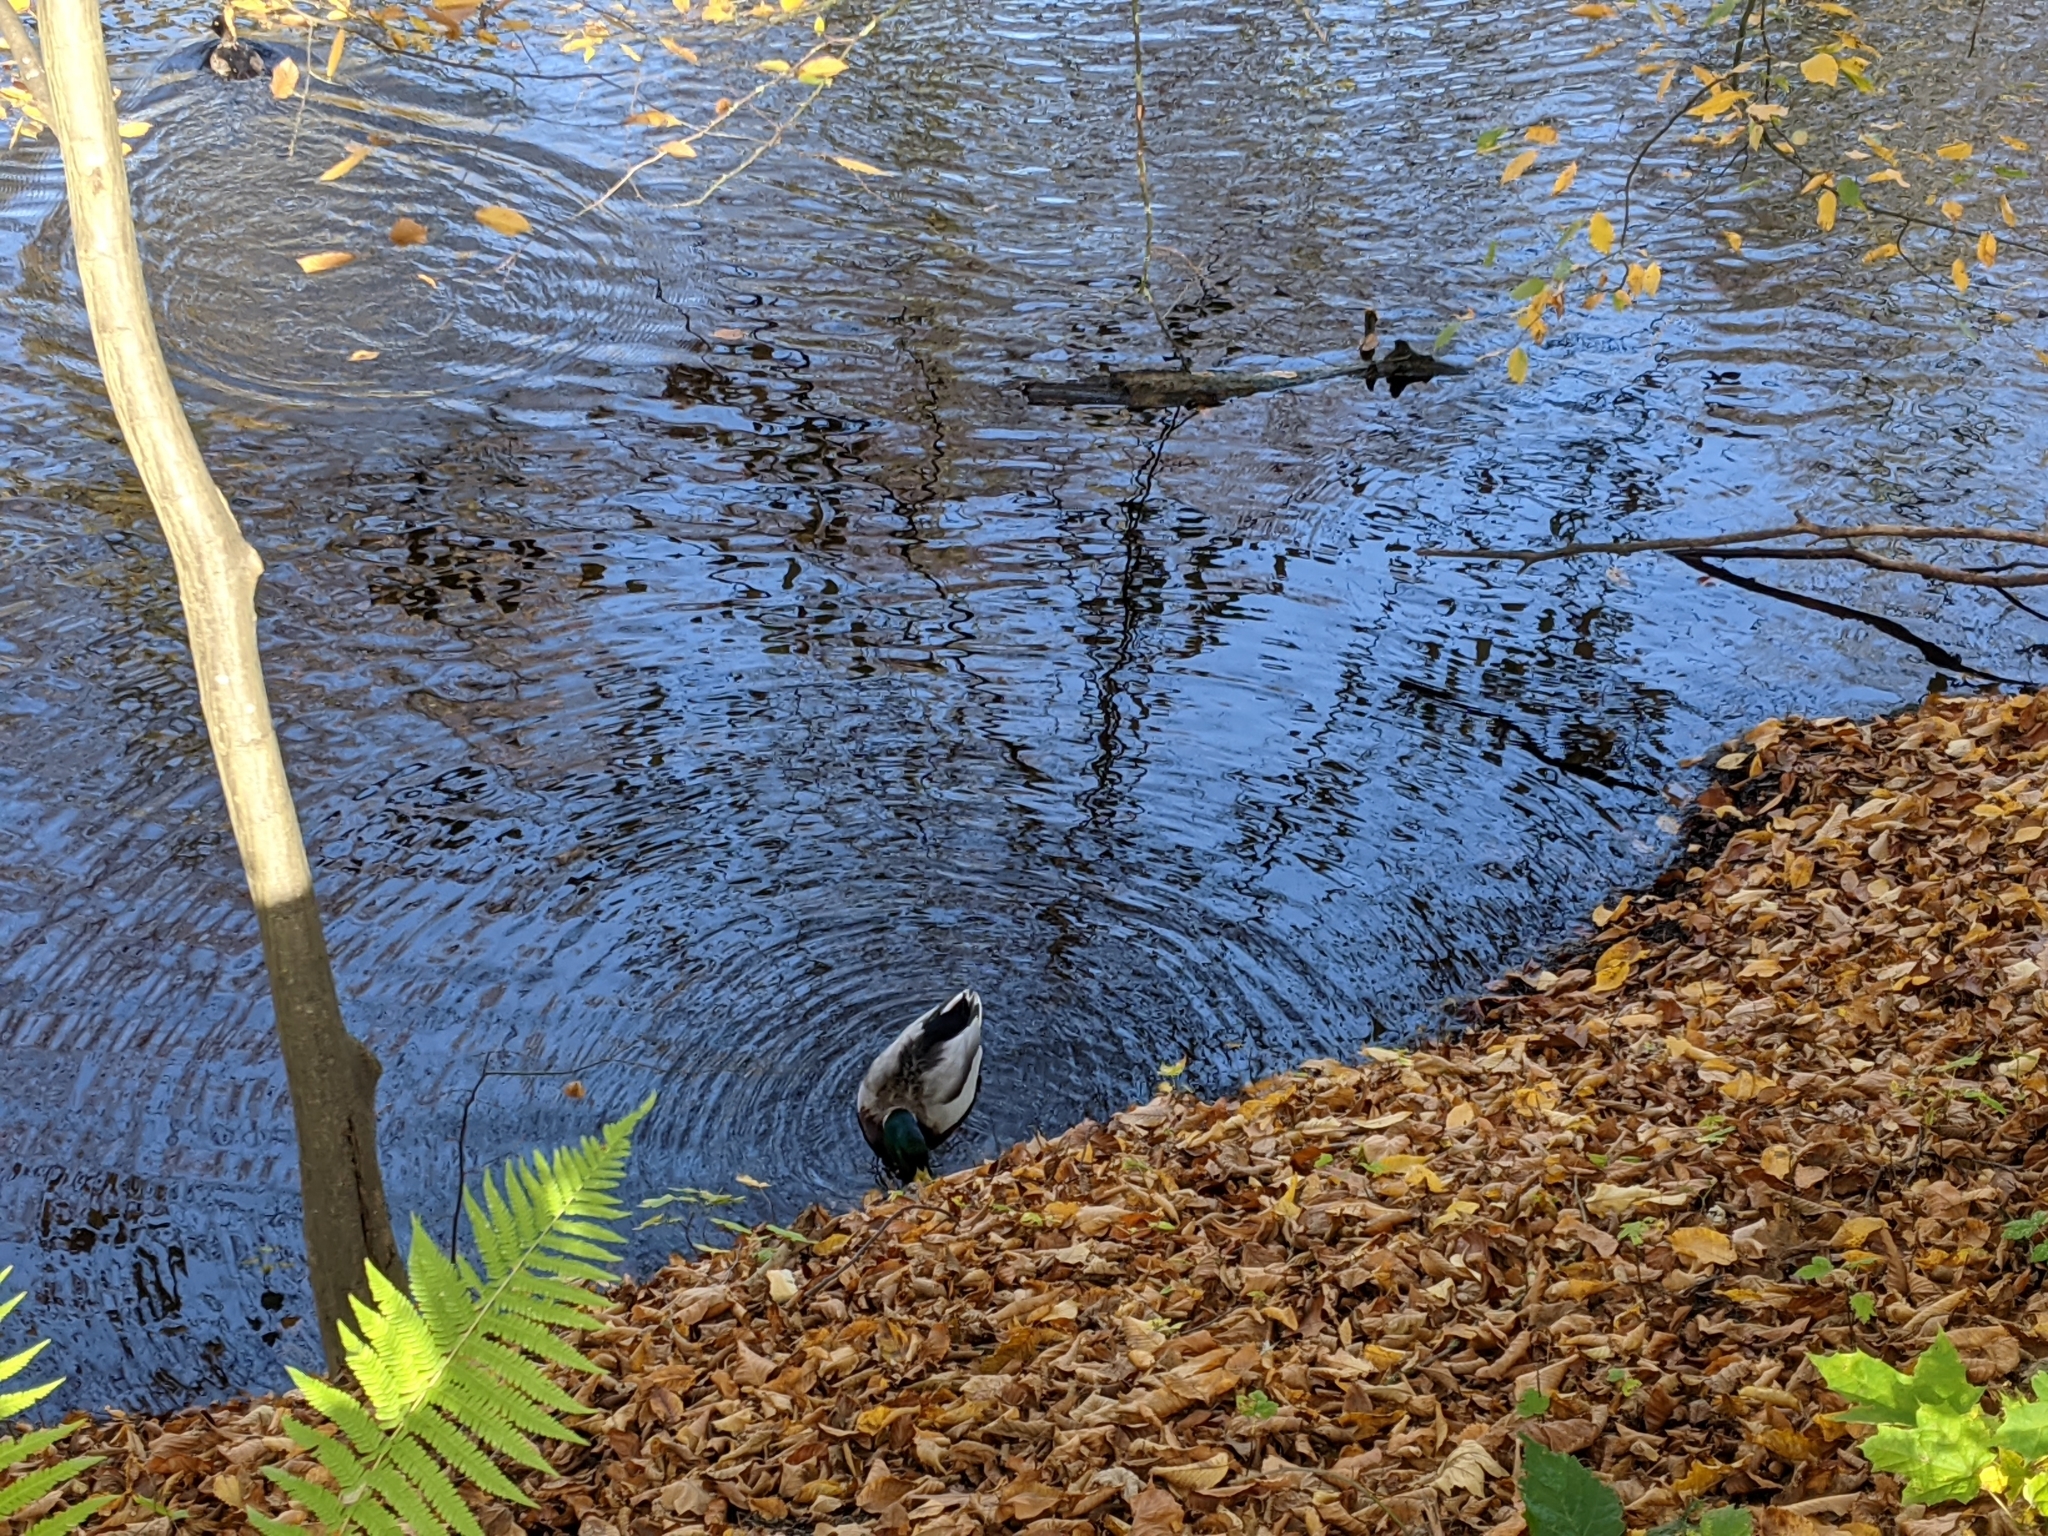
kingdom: Animalia
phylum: Chordata
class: Aves
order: Anseriformes
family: Anatidae
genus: Anas
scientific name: Anas platyrhynchos
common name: Mallard
